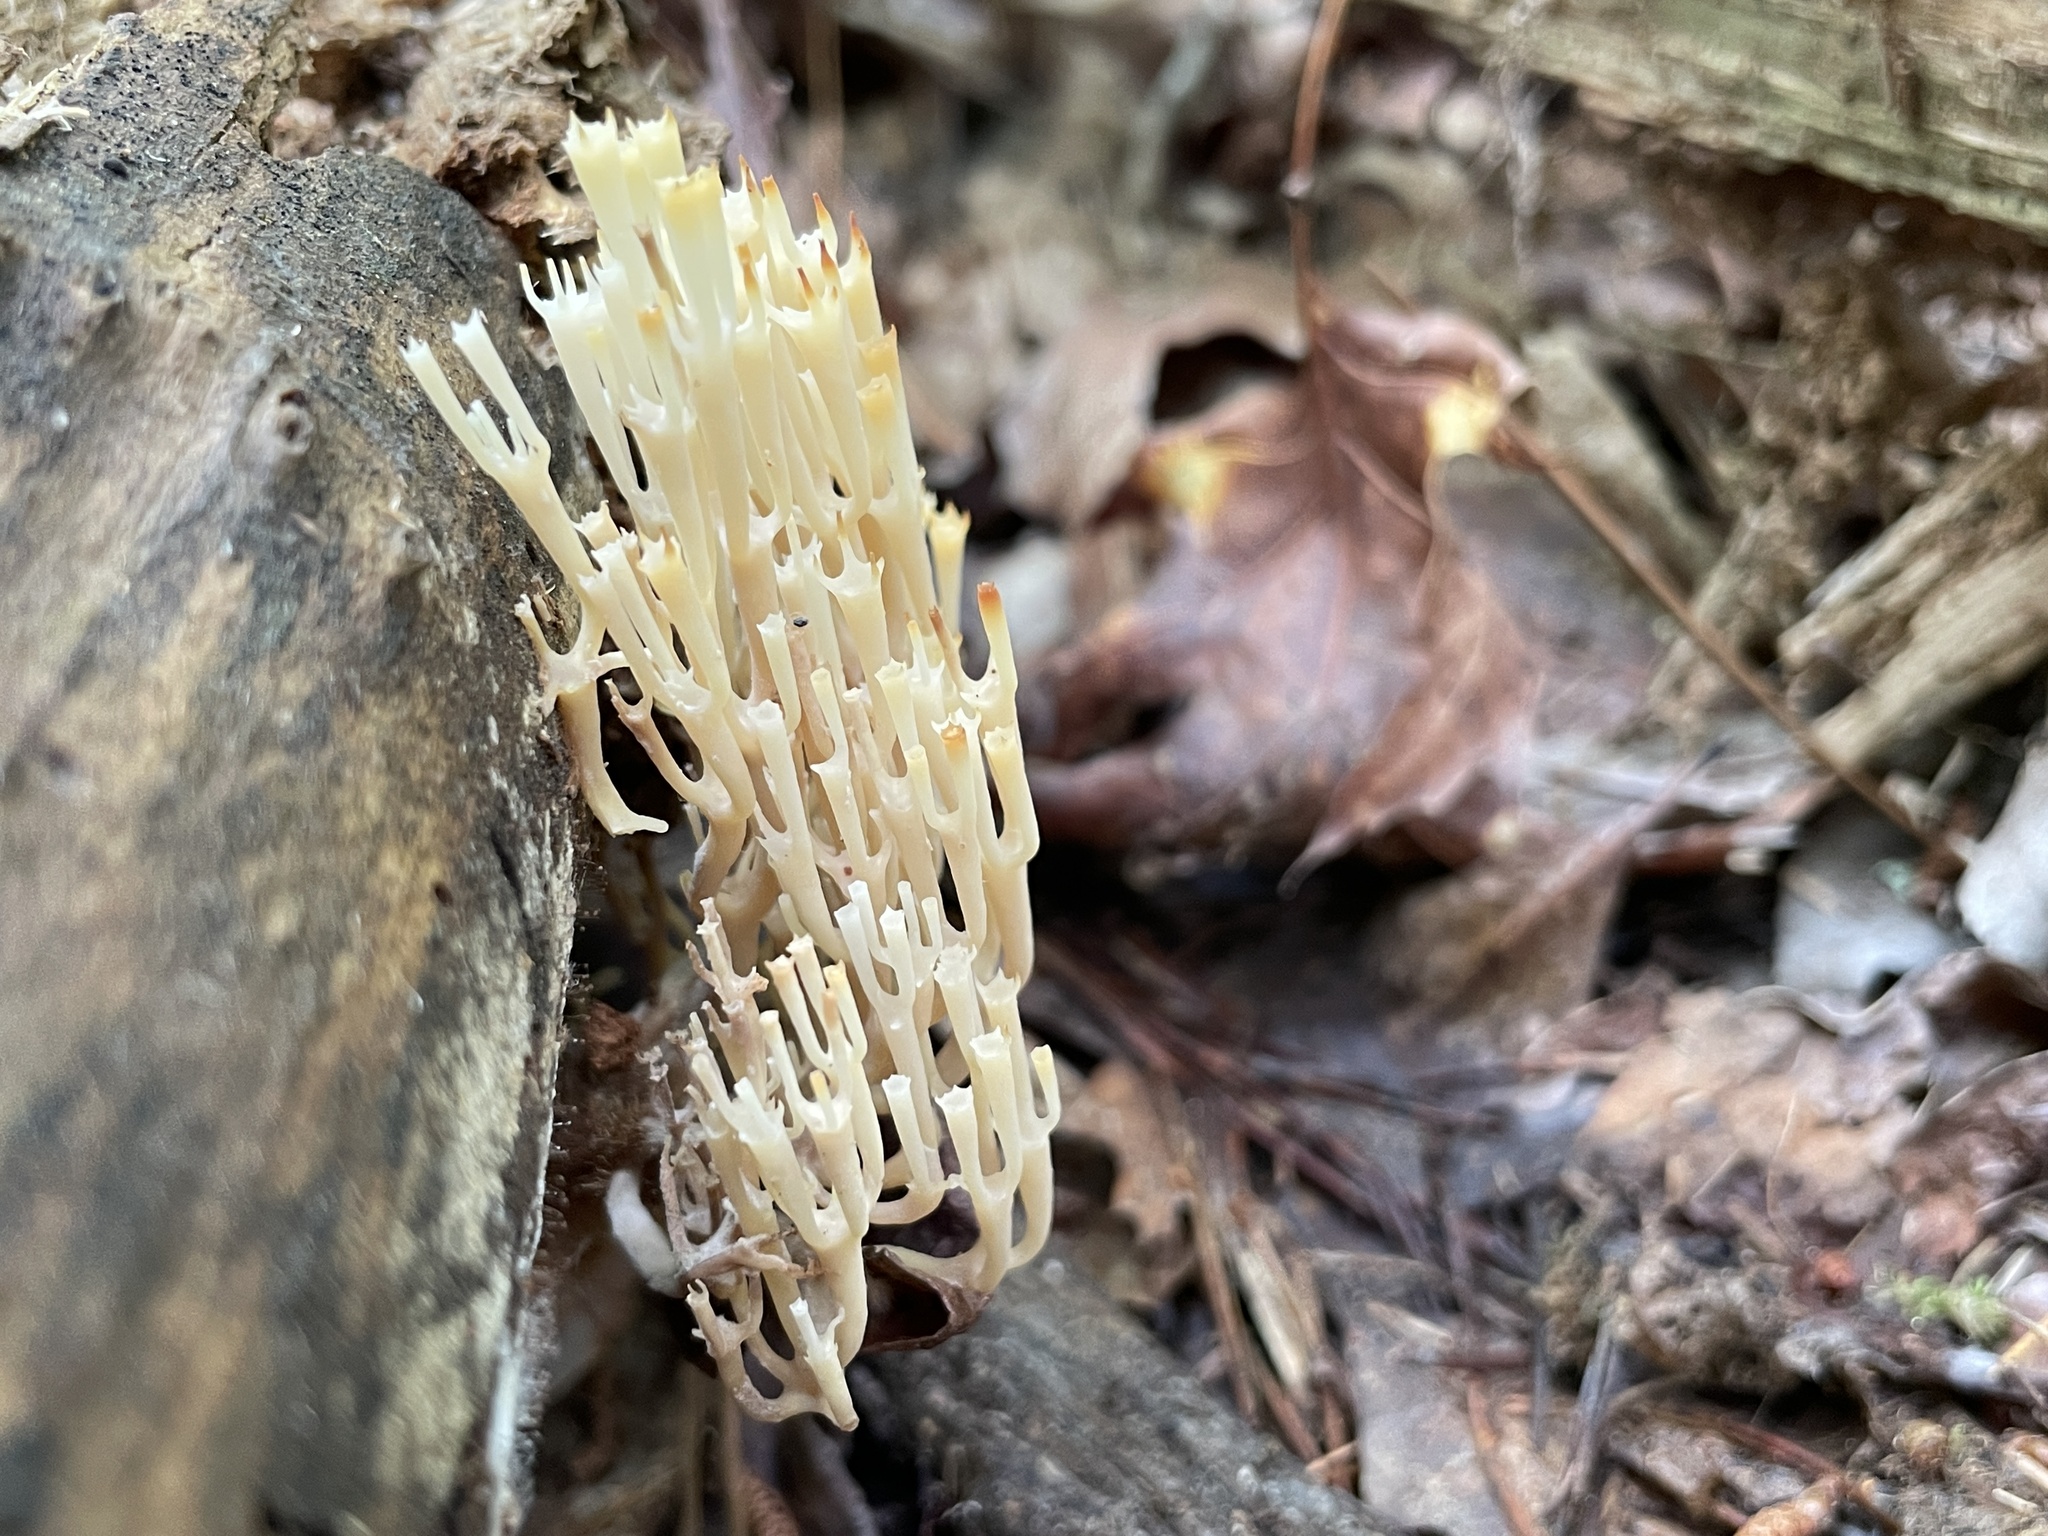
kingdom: Fungi
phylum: Basidiomycota
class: Agaricomycetes
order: Russulales
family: Auriscalpiaceae
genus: Artomyces
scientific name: Artomyces pyxidatus
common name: Crown-tipped coral fungus
